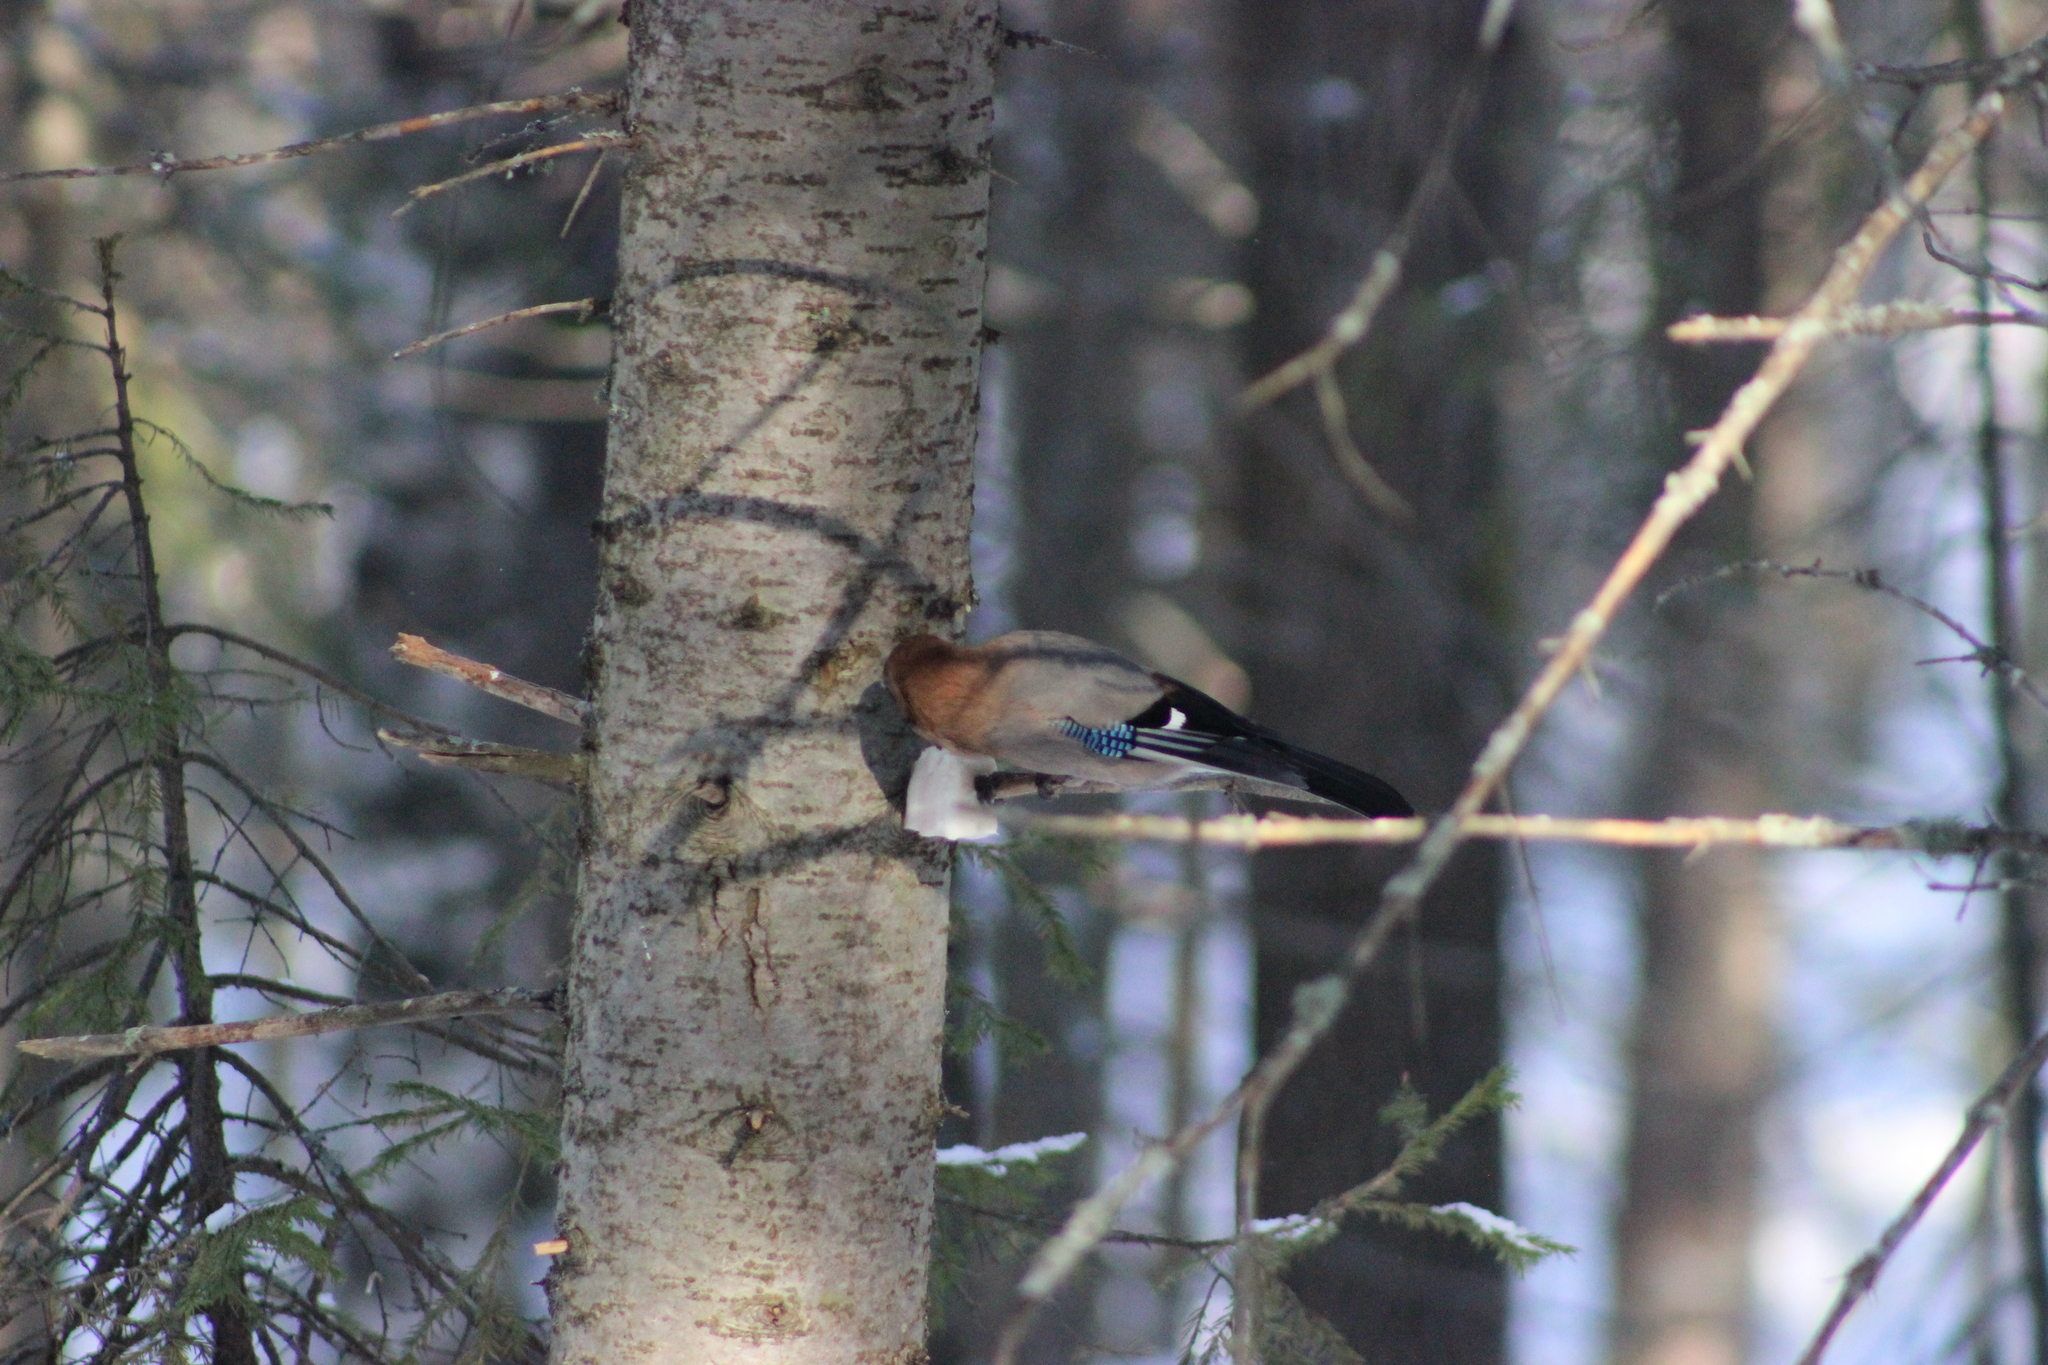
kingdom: Animalia
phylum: Chordata
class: Aves
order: Passeriformes
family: Corvidae
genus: Garrulus
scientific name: Garrulus glandarius
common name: Eurasian jay
